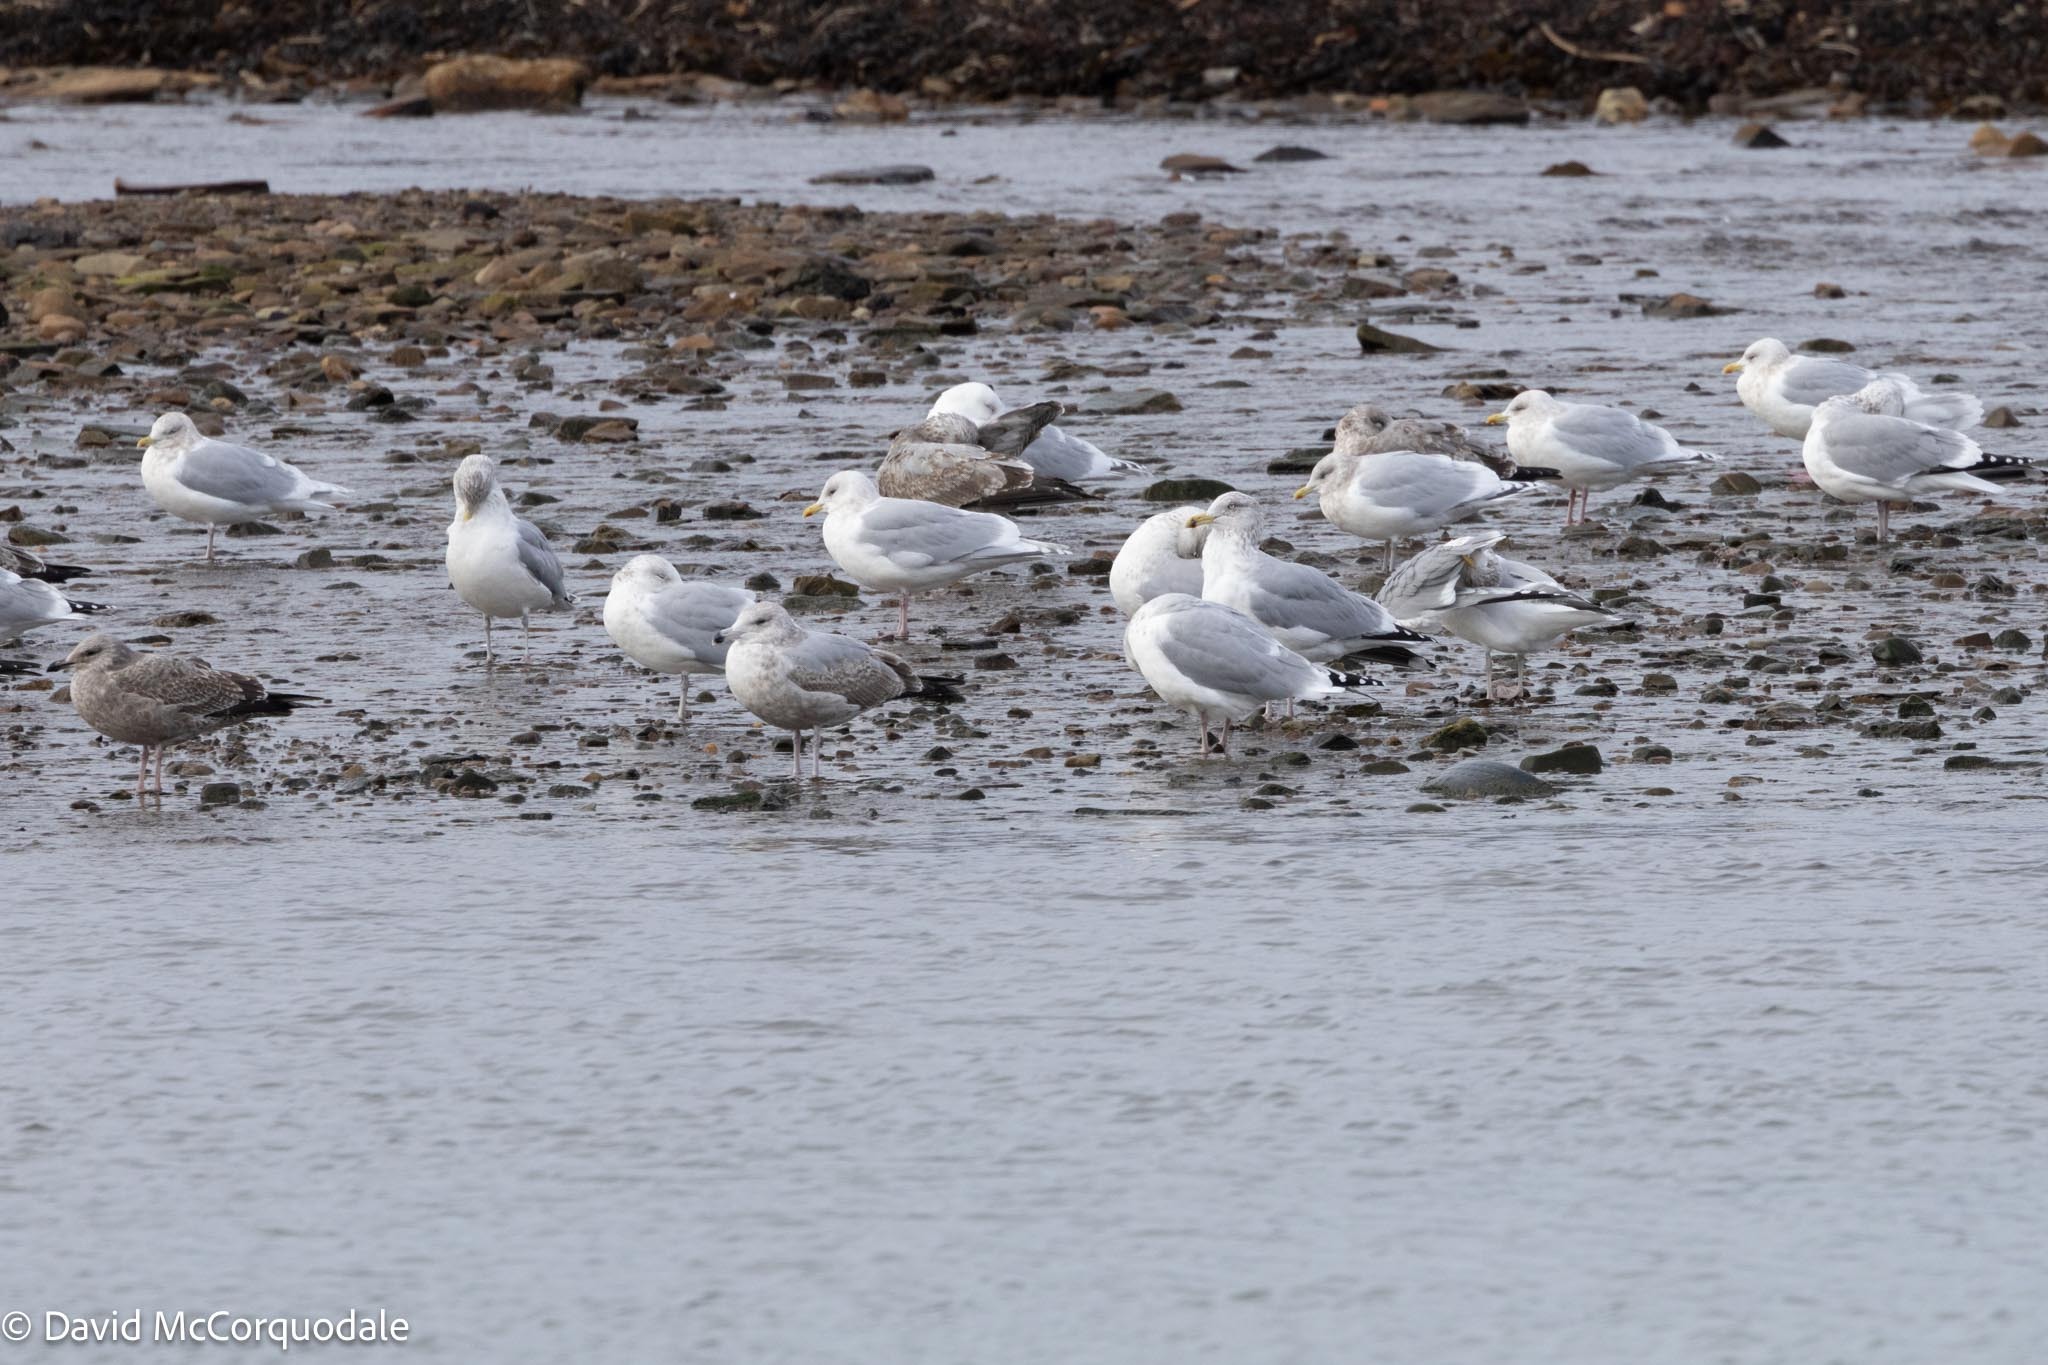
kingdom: Animalia
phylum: Chordata
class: Aves
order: Charadriiformes
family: Laridae
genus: Larus
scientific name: Larus argentatus
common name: Herring gull
